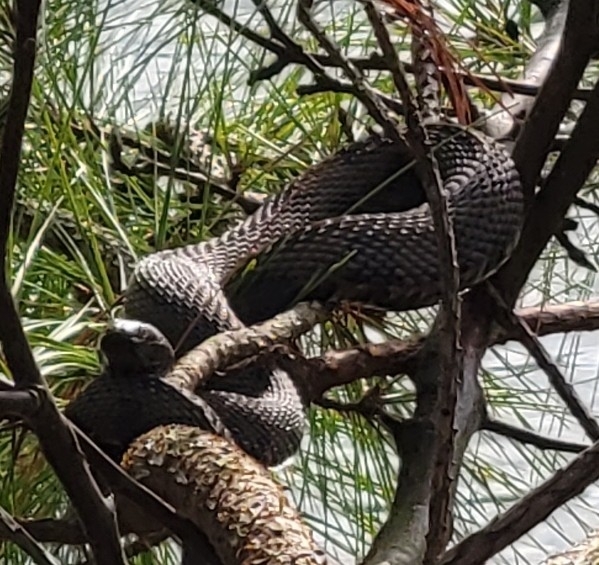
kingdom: Animalia
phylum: Chordata
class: Squamata
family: Colubridae
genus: Nerodia
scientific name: Nerodia taxispilota
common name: Brown water snake
